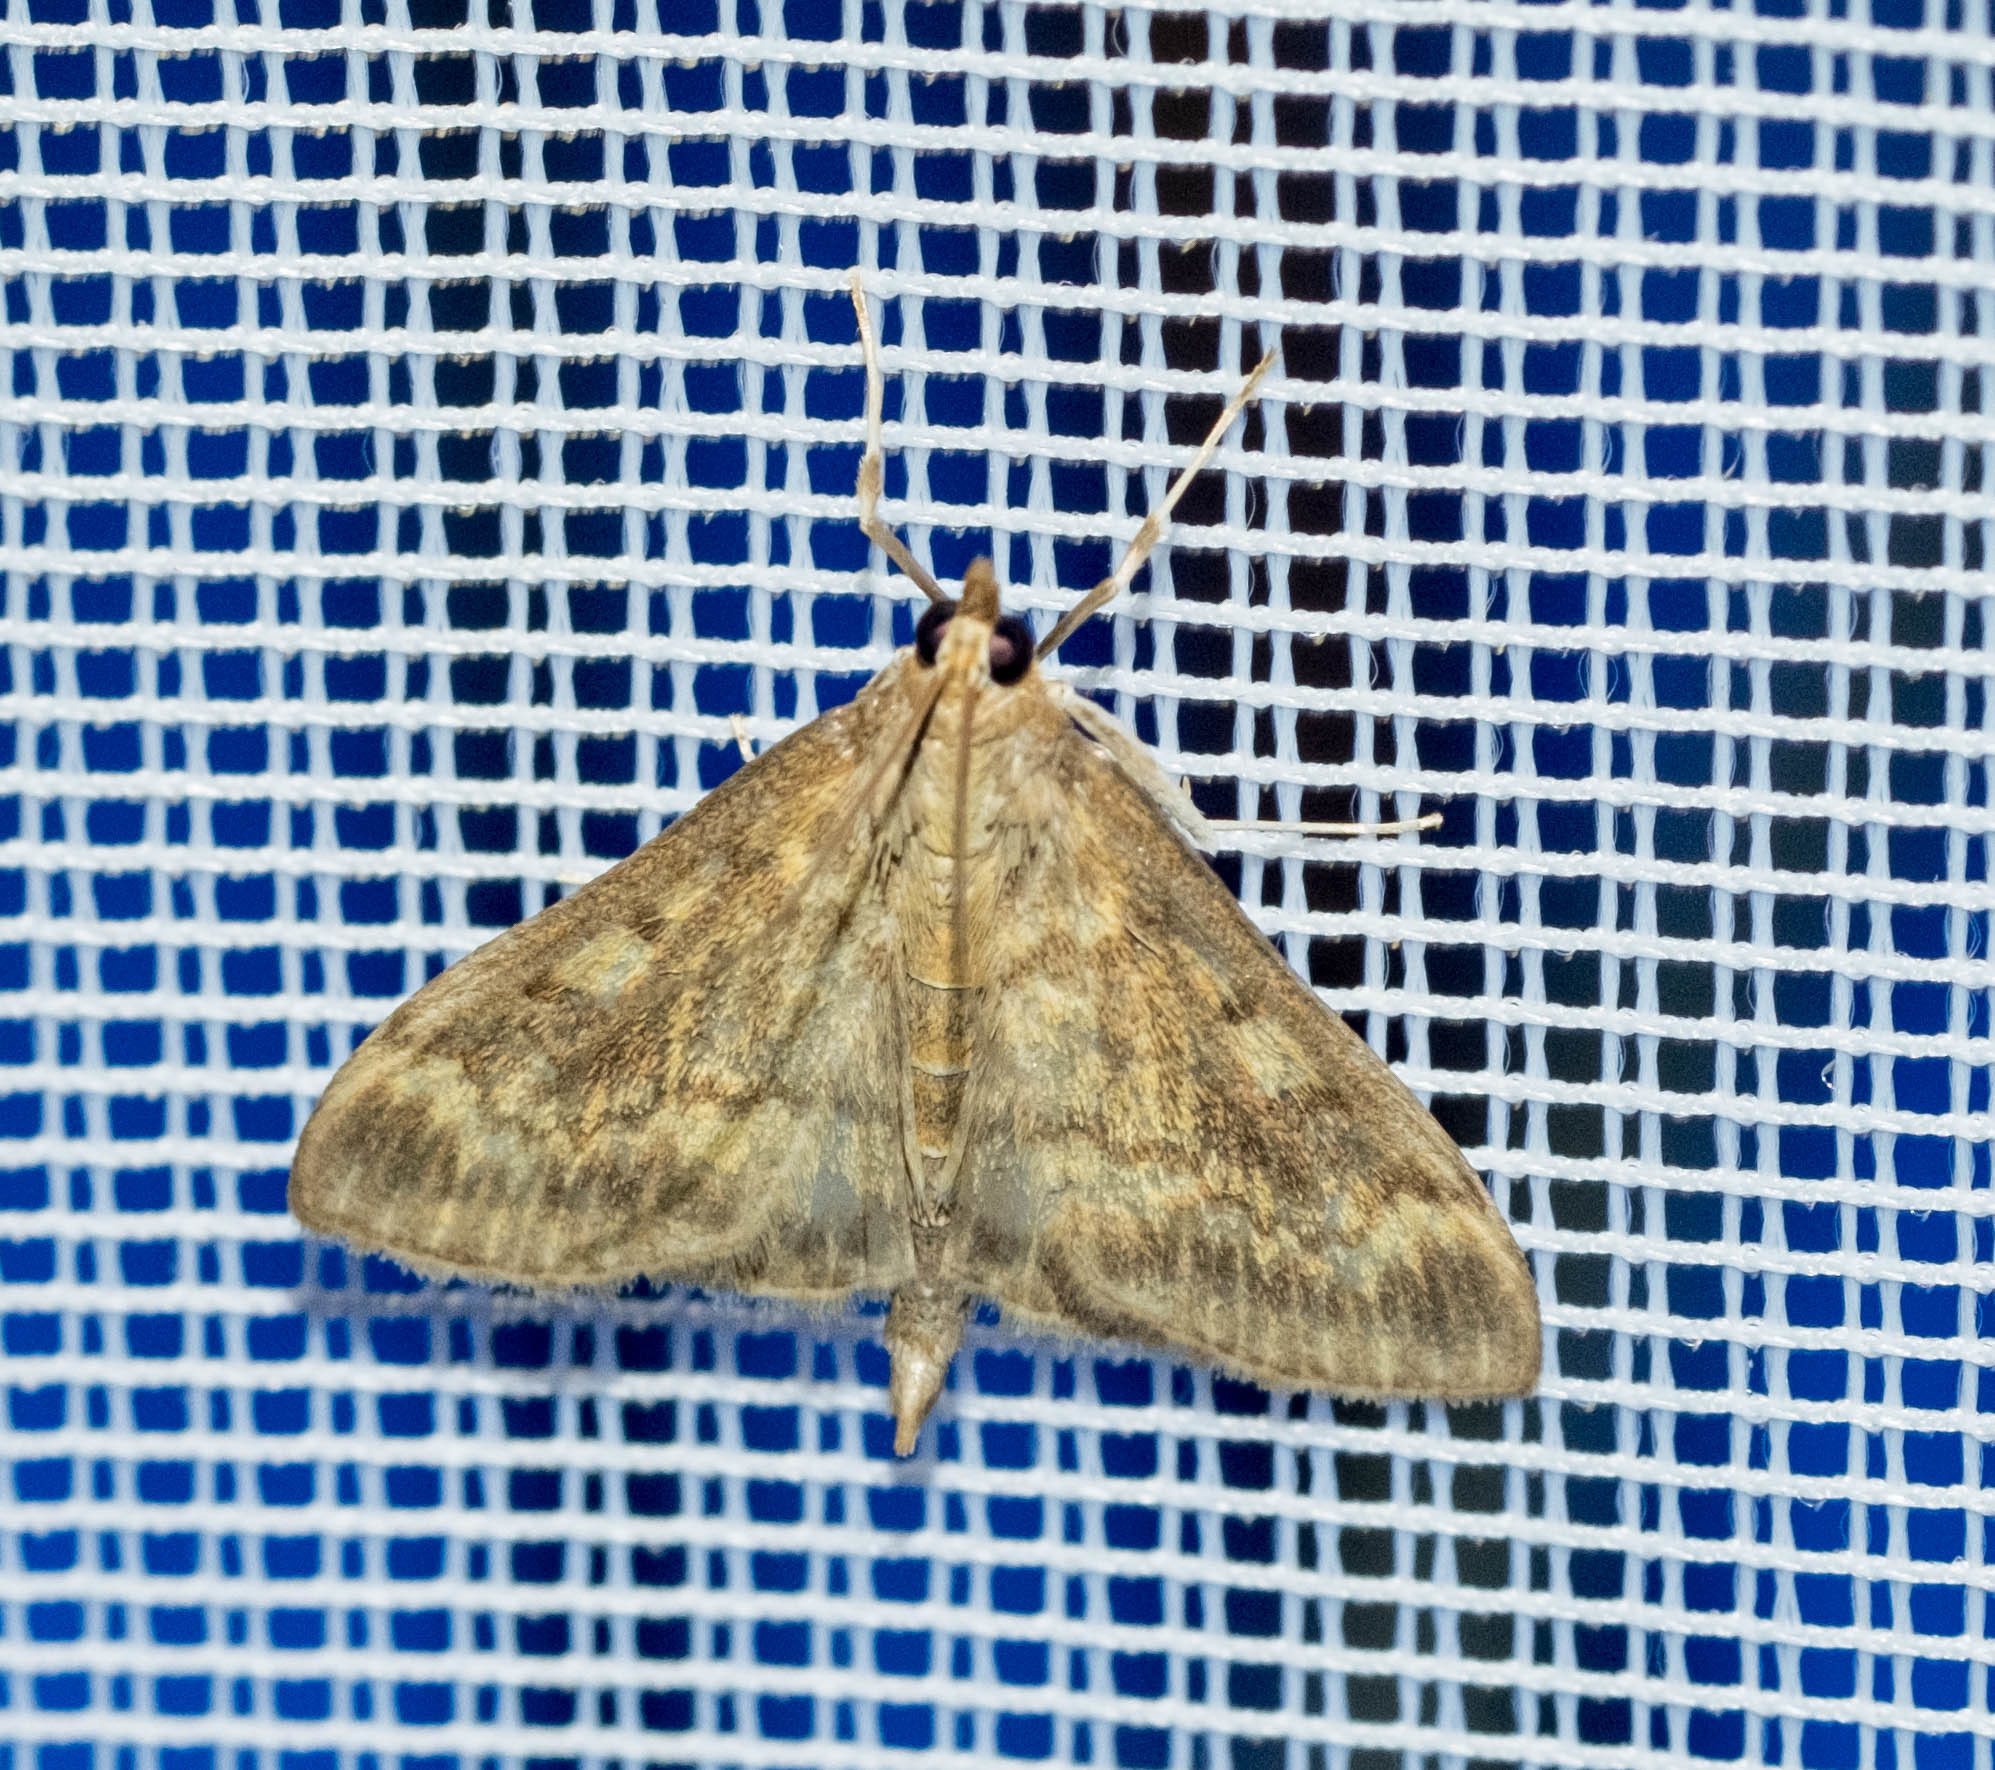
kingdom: Animalia
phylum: Arthropoda
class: Insecta
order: Lepidoptera
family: Crambidae
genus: Ostrinia
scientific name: Ostrinia nubilalis
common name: European corn borer
